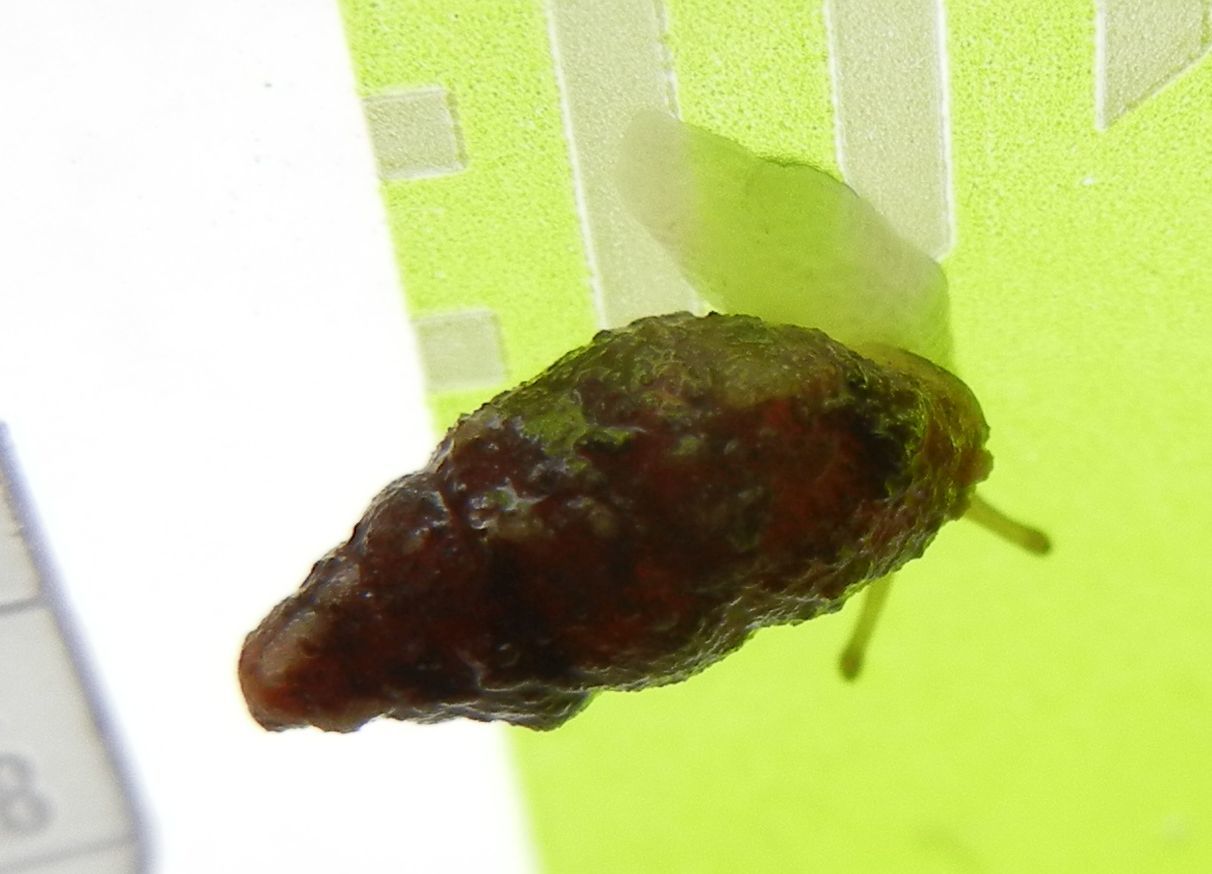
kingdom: Animalia
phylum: Mollusca
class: Gastropoda
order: Stylommatophora
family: Enidae
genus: Merdigera
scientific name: Merdigera obscura
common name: Lesser bulin
